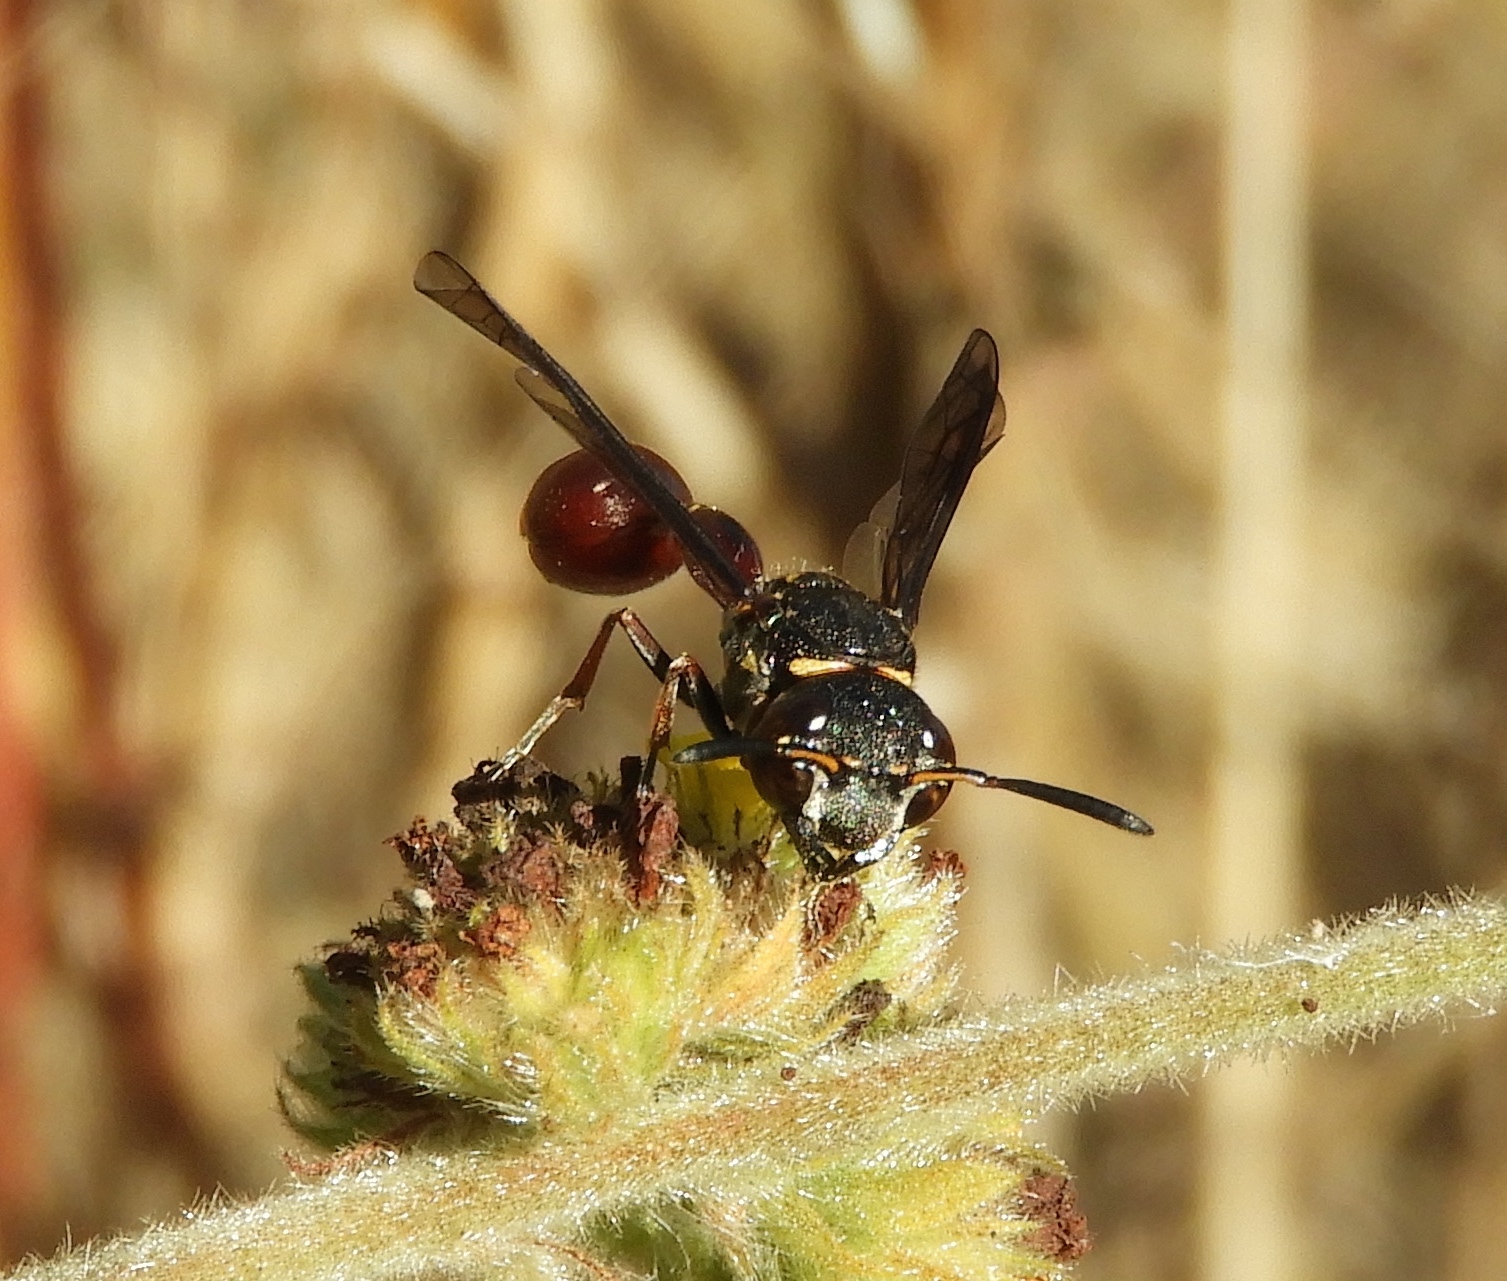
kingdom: Animalia
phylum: Arthropoda
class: Insecta
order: Hymenoptera
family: Eumenidae
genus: Zethus
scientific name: Zethus analis
